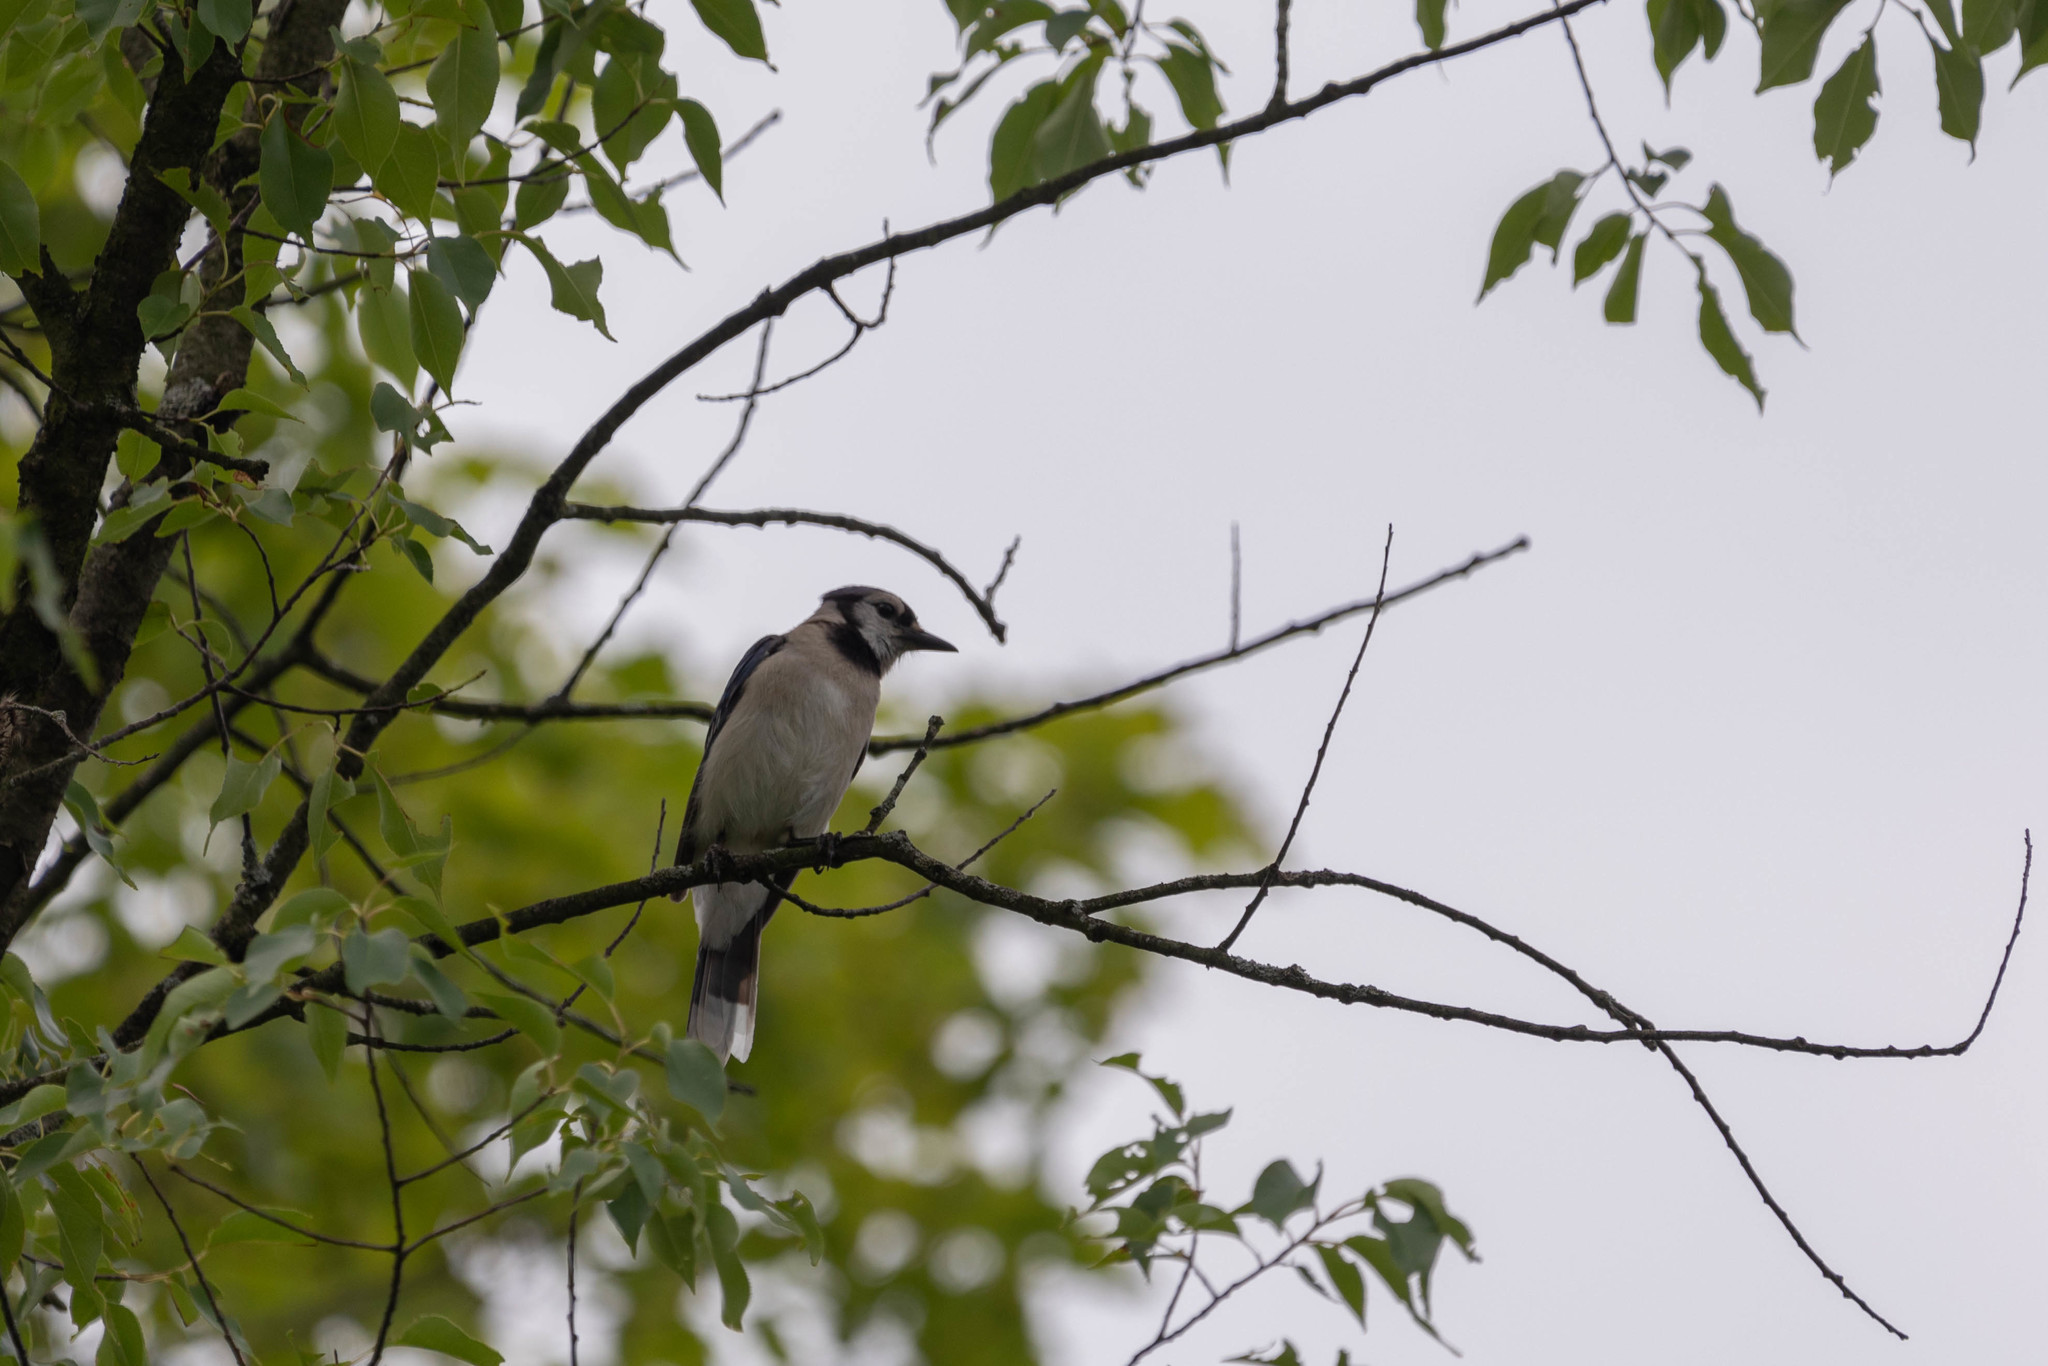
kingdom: Animalia
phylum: Chordata
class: Aves
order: Passeriformes
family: Corvidae
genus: Cyanocitta
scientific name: Cyanocitta cristata
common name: Blue jay
